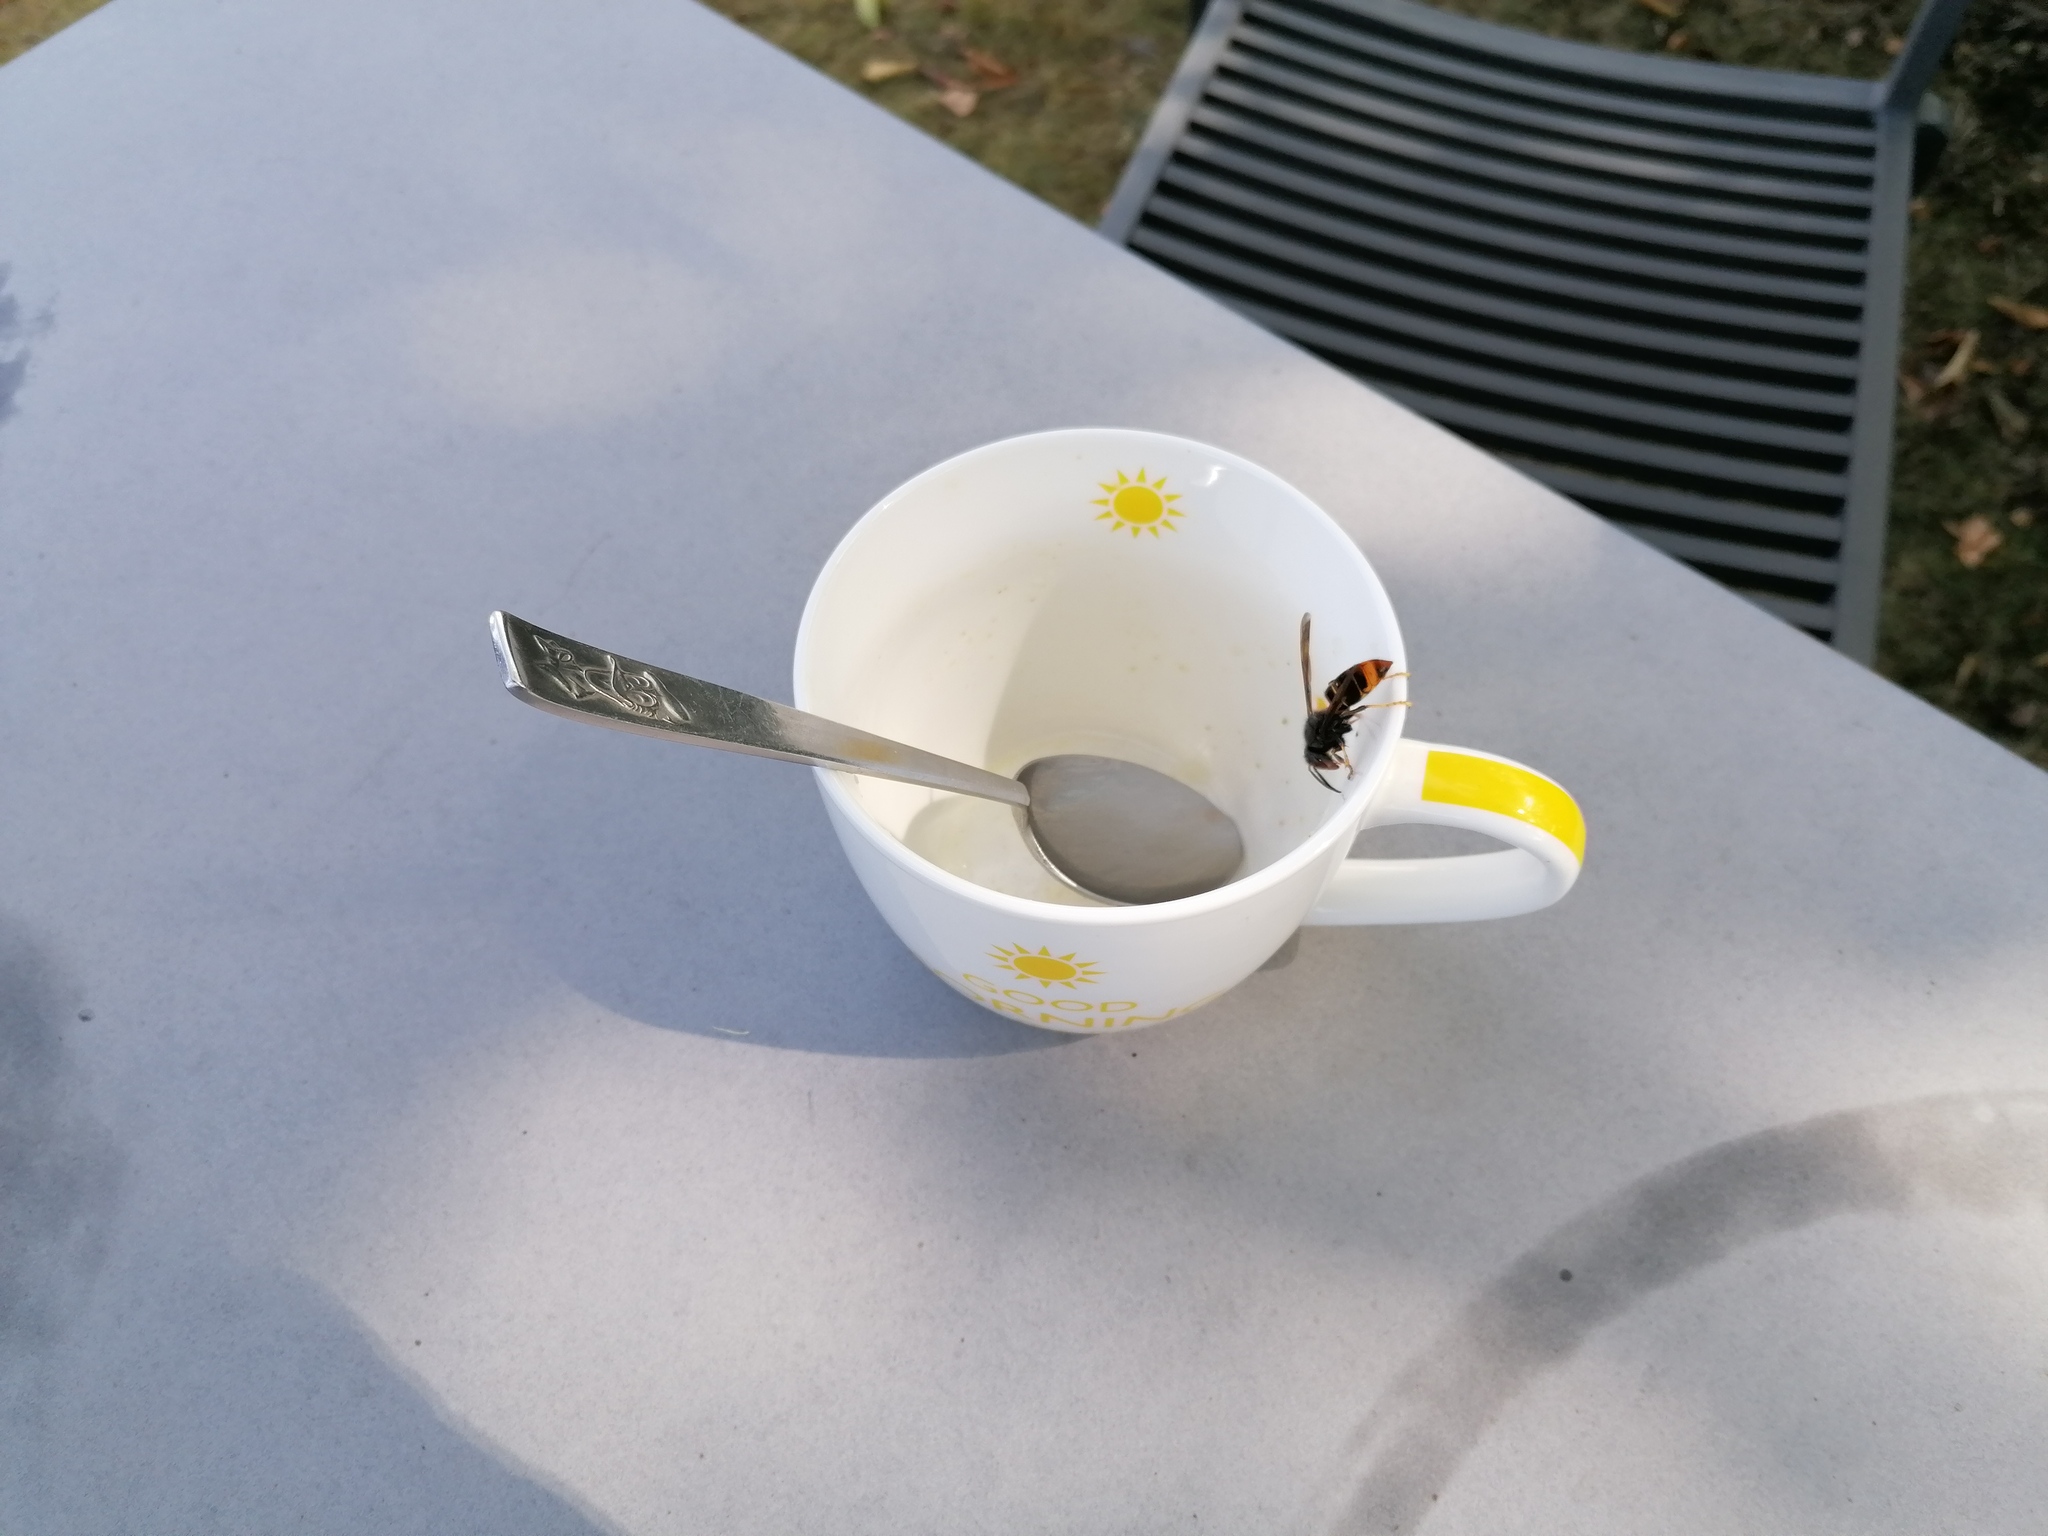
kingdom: Animalia
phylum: Arthropoda
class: Insecta
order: Hymenoptera
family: Vespidae
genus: Vespa
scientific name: Vespa velutina
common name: Asian hornet
